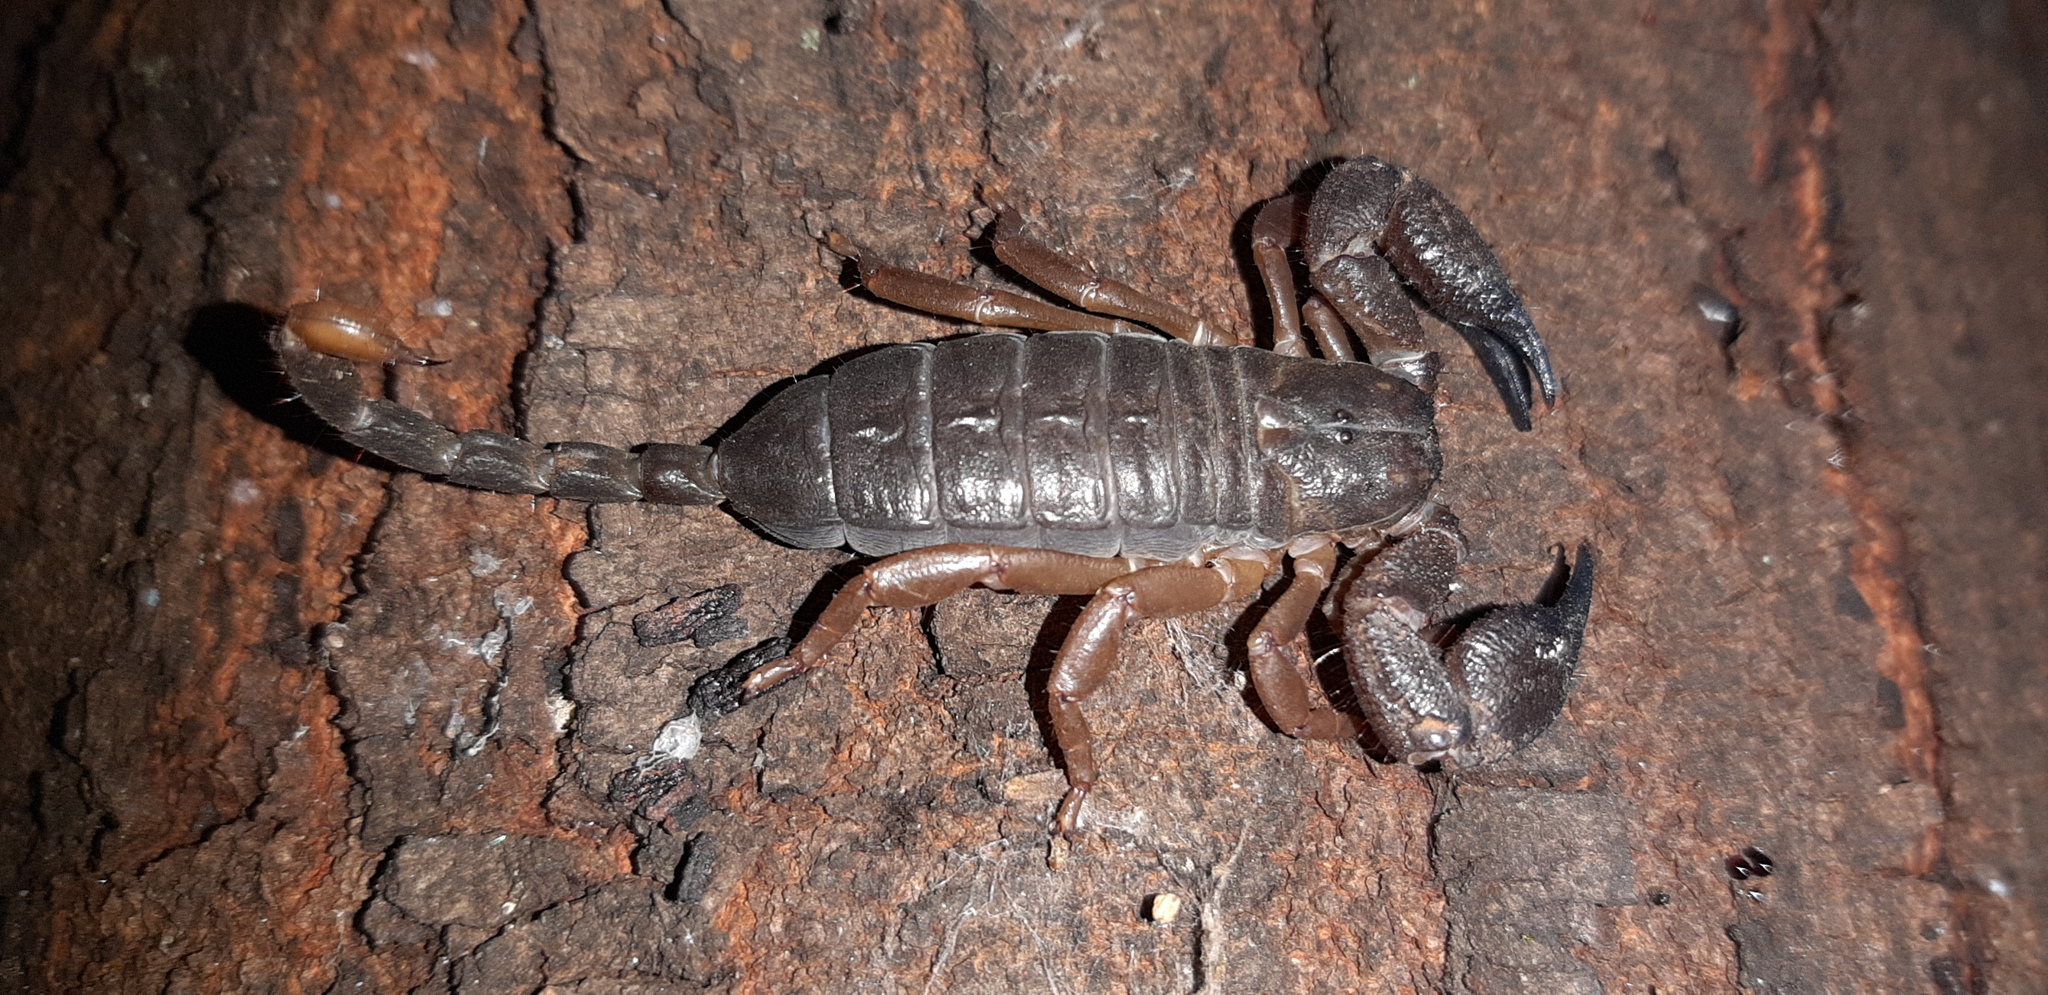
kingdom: Animalia
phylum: Arthropoda
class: Arachnida
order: Scorpiones
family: Hormuridae
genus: Opisthacanthus
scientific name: Opisthacanthus asper
